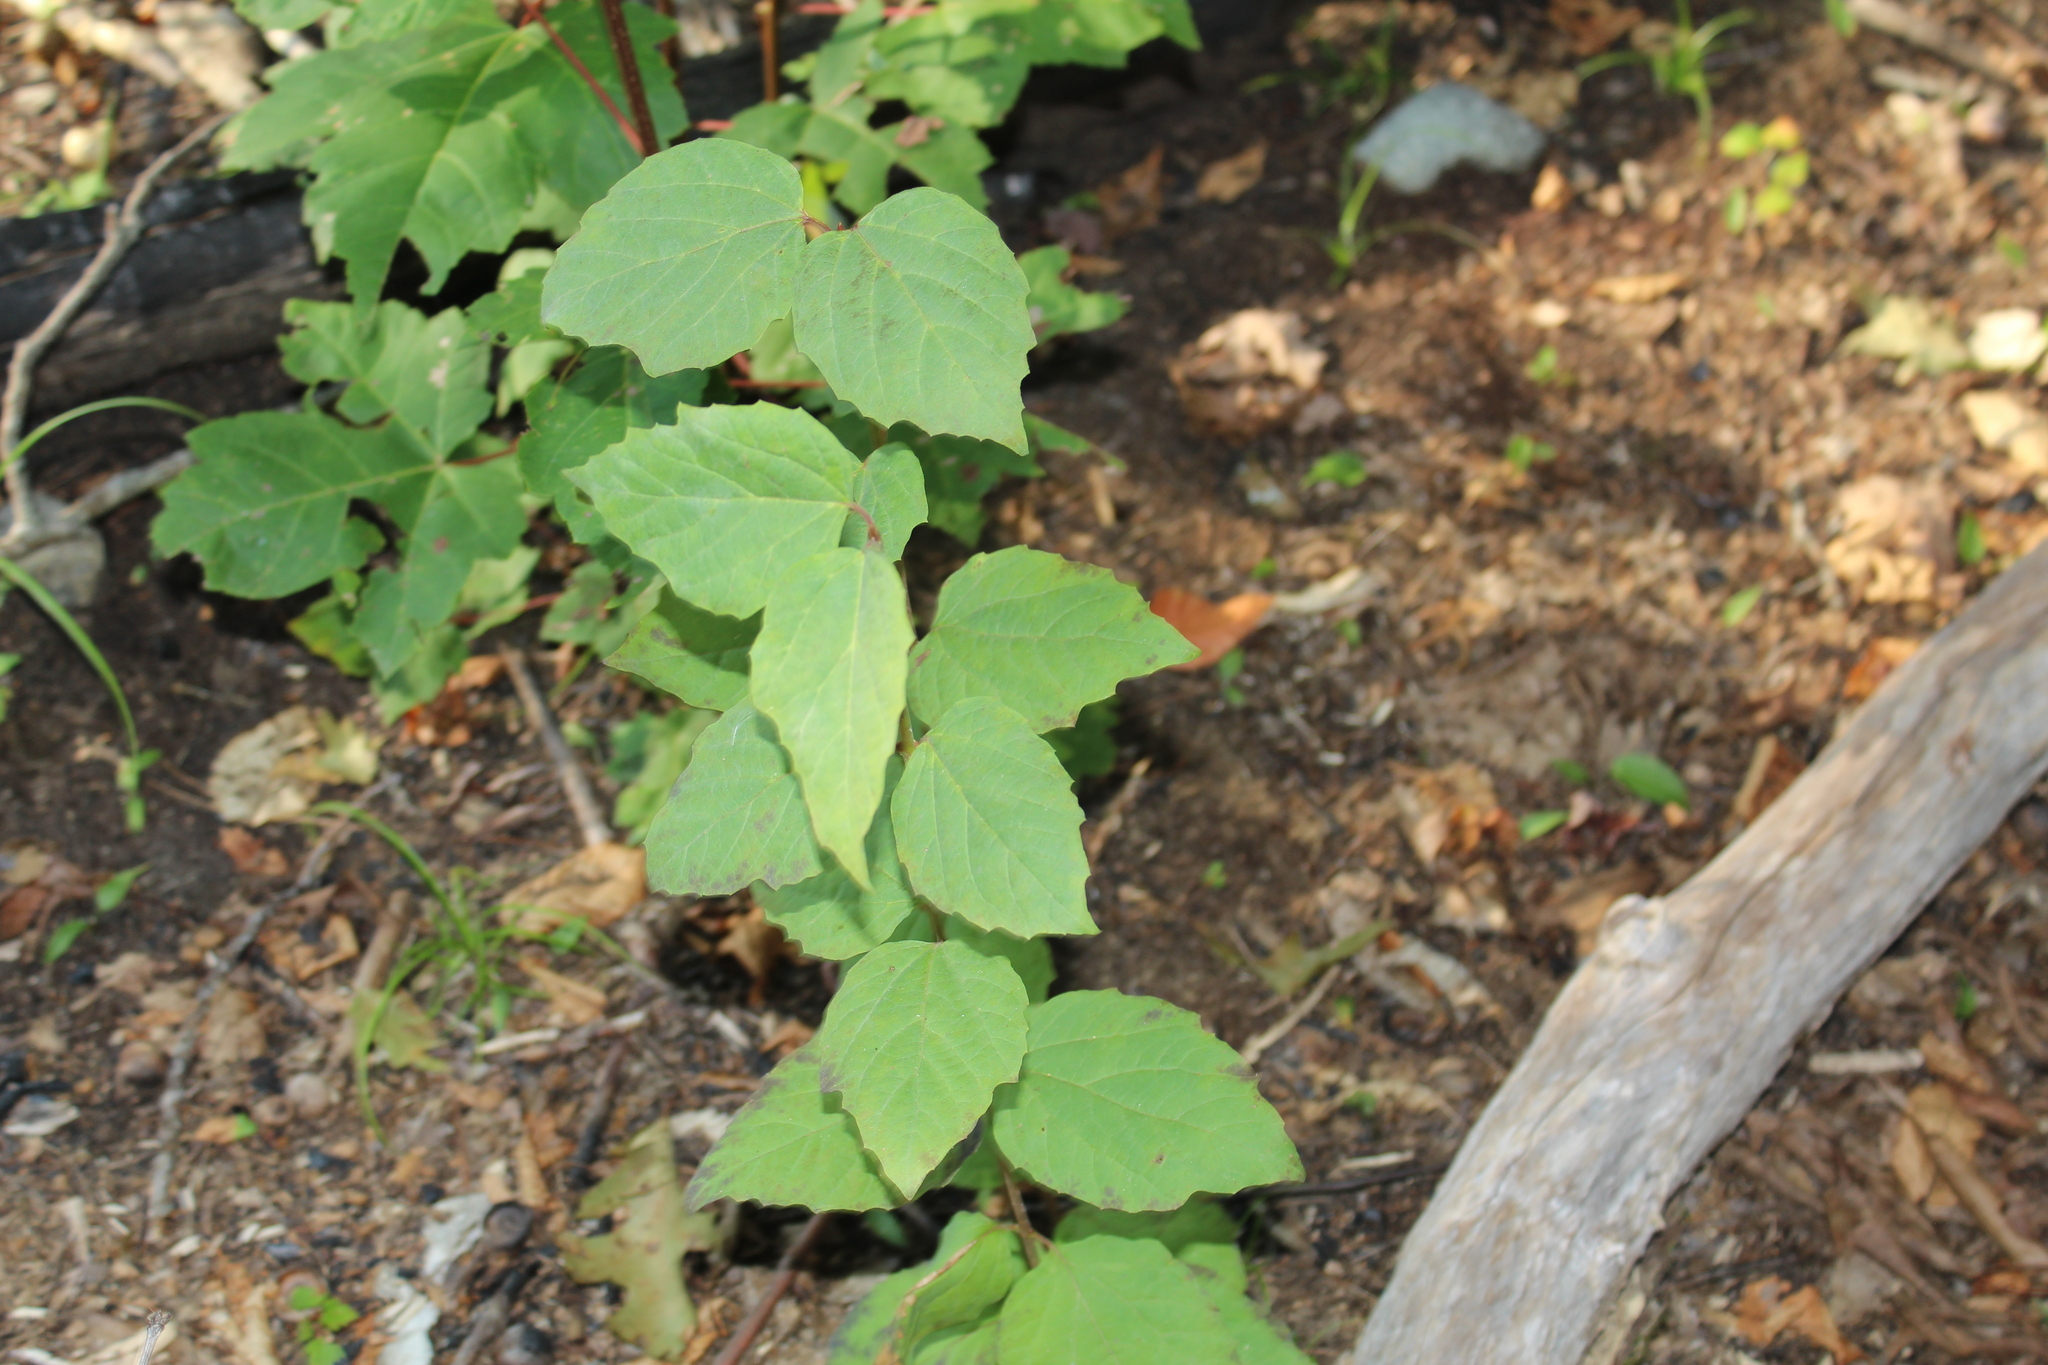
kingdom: Plantae
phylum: Tracheophyta
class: Magnoliopsida
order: Ranunculales
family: Ranunculaceae
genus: Clematis
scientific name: Clematis virginiana
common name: Virgin's-bower
